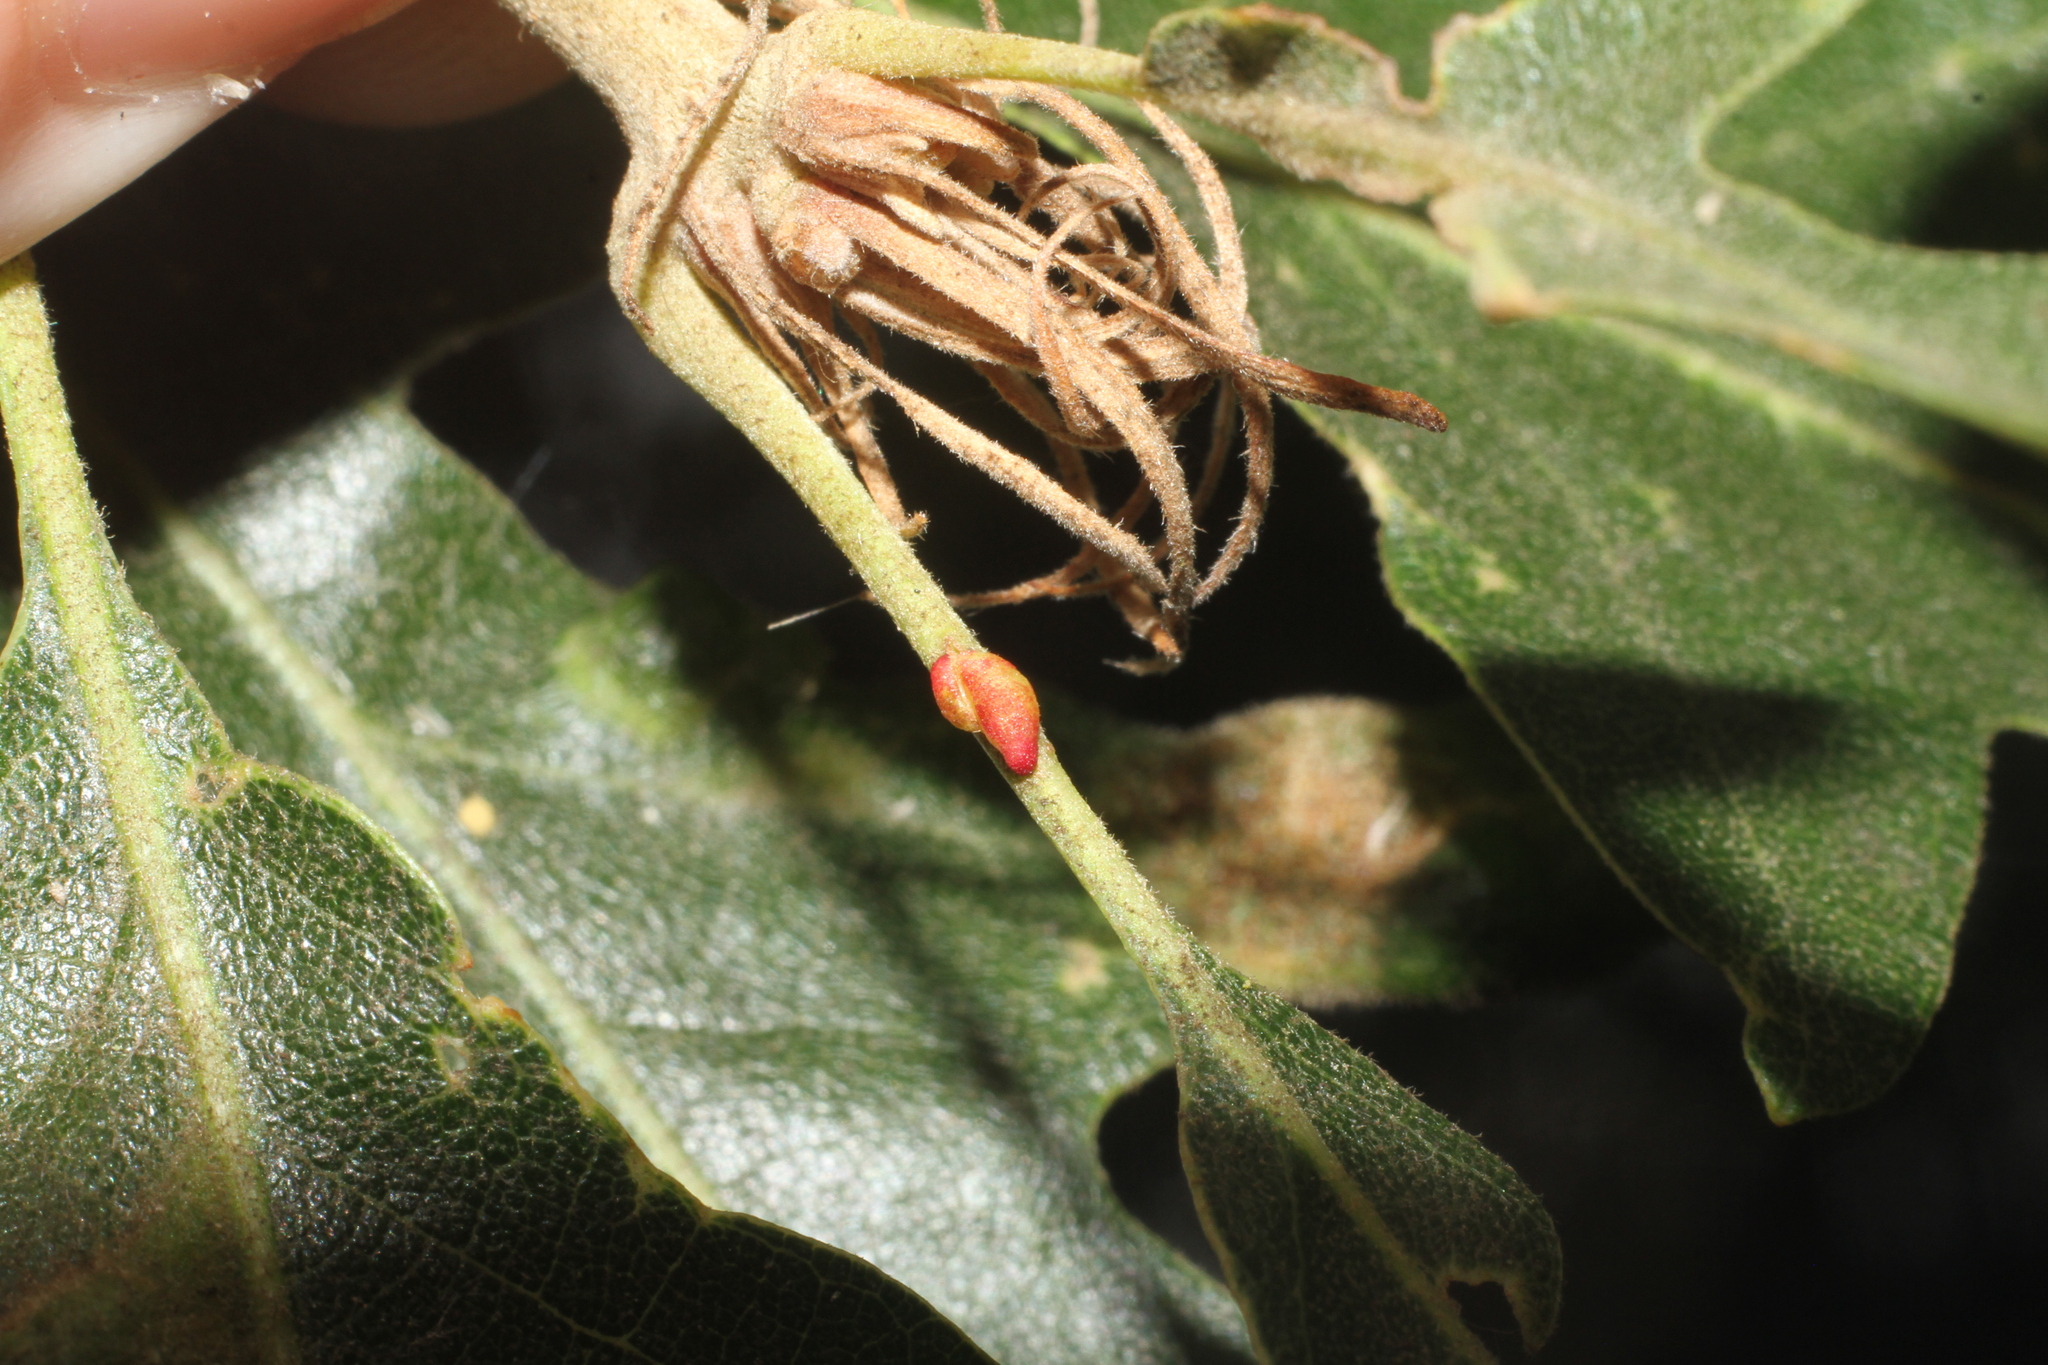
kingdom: Animalia
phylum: Arthropoda
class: Insecta
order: Hymenoptera
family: Cynipidae
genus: Neuroterus
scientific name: Neuroterus saliens
